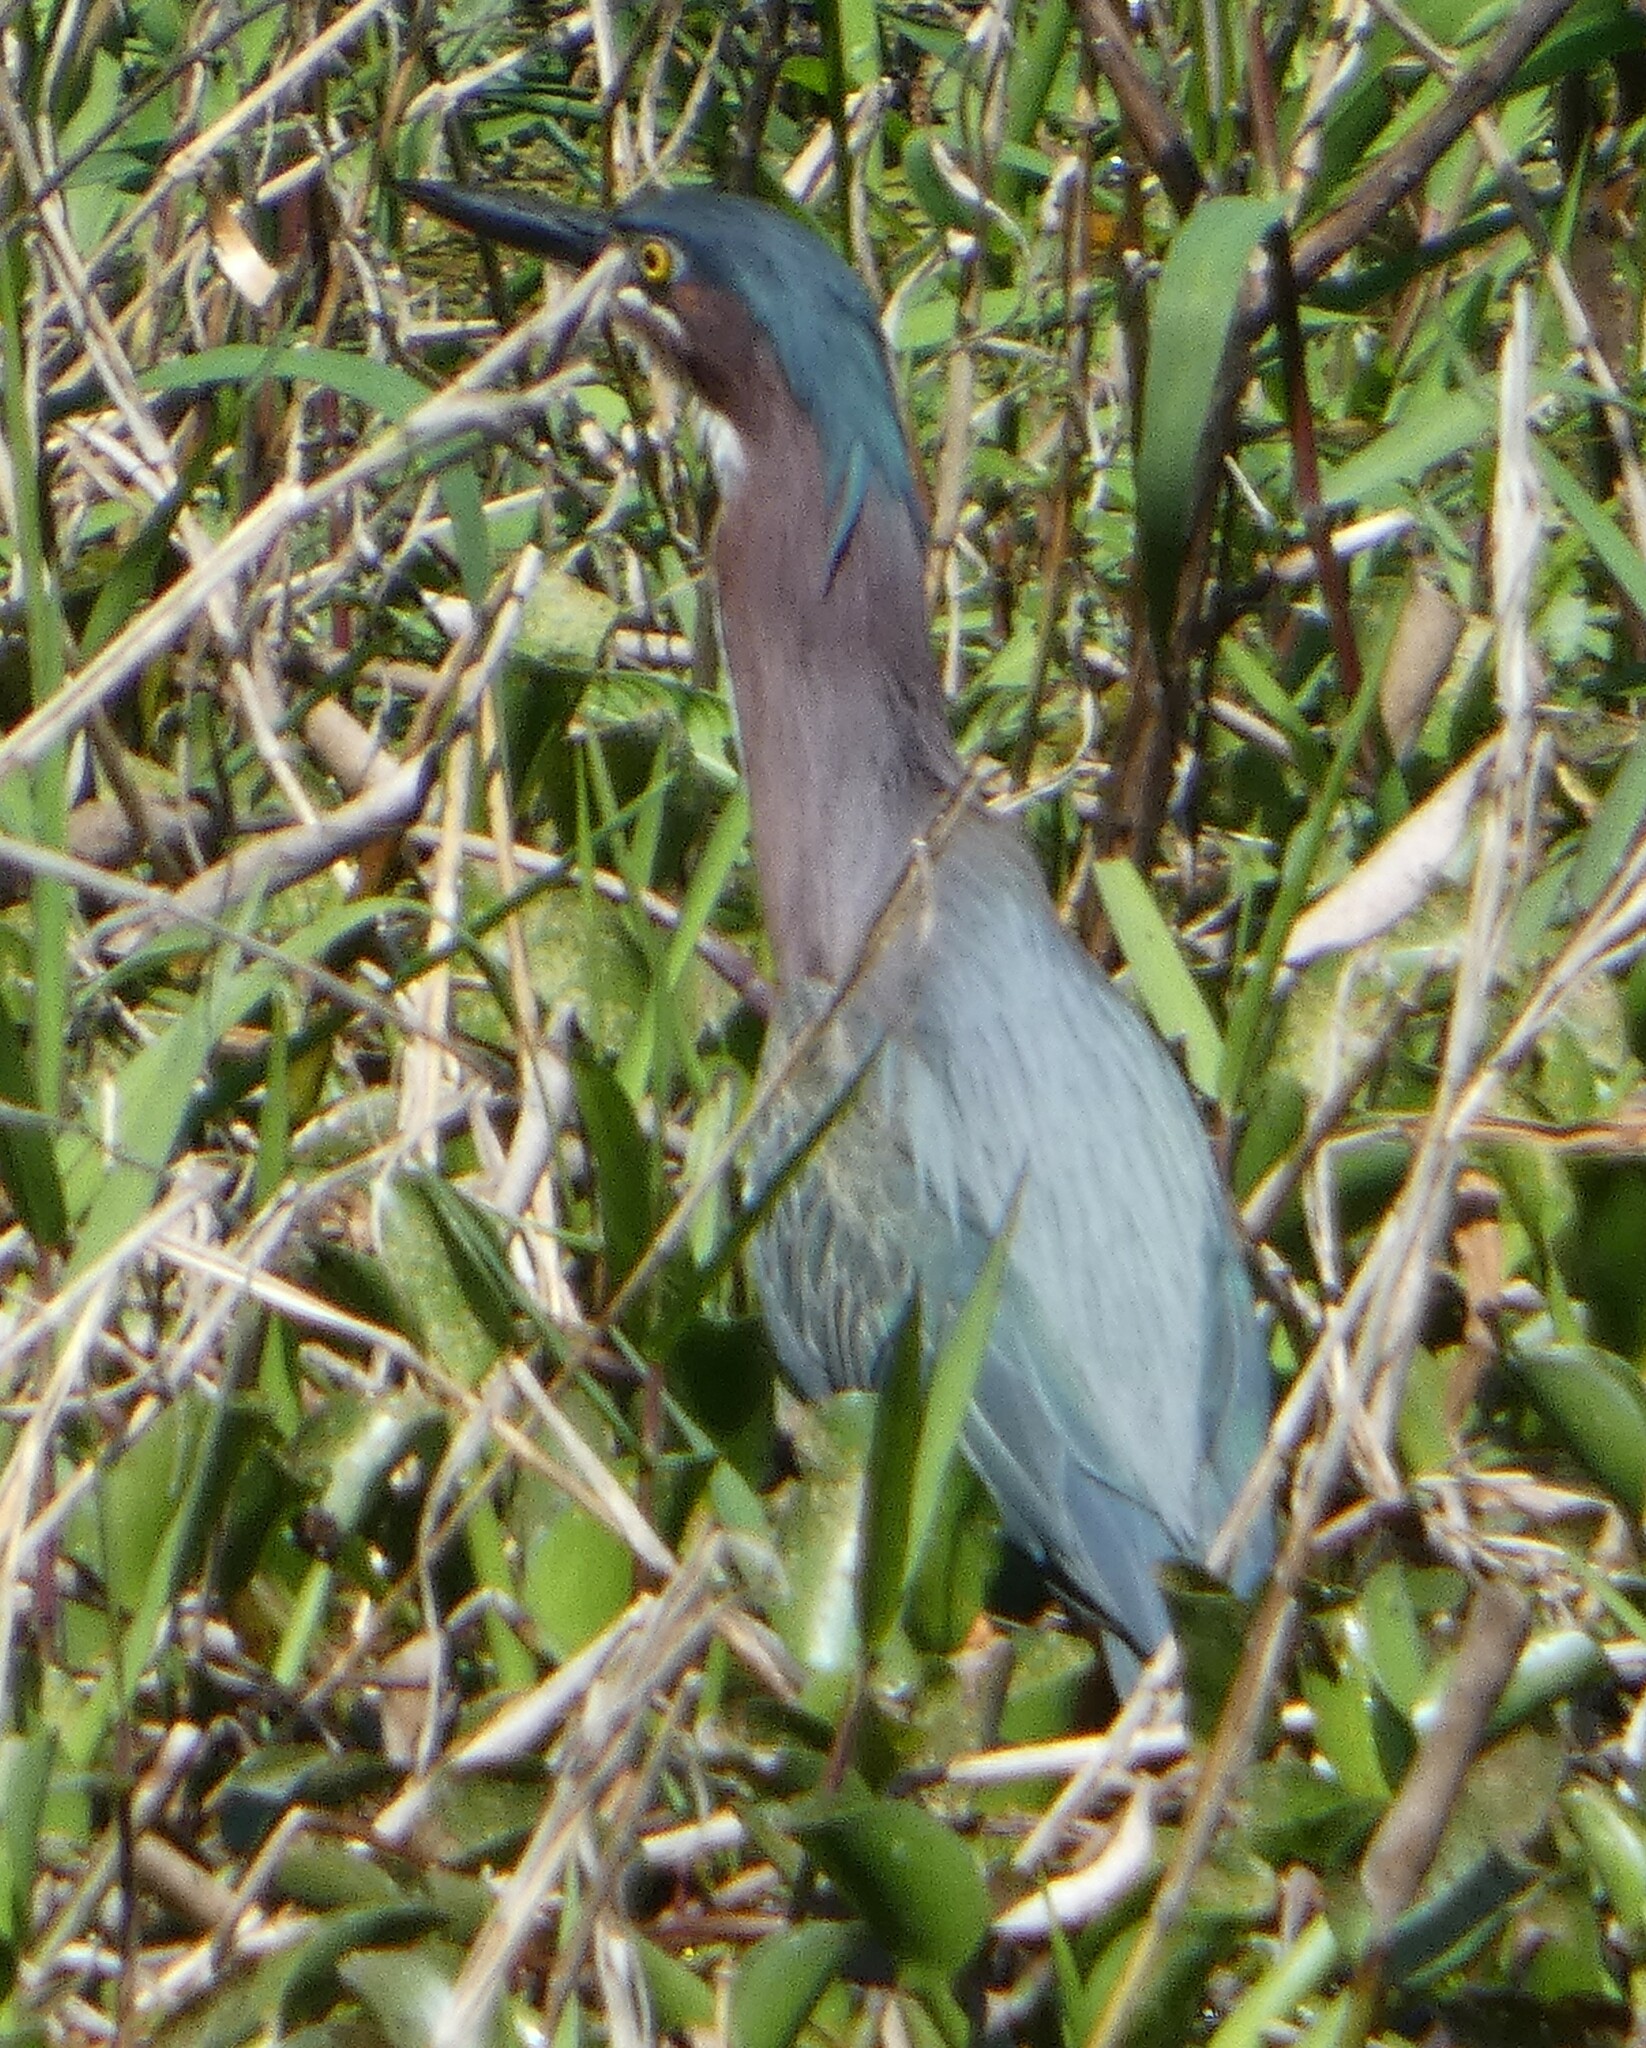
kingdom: Animalia
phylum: Chordata
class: Aves
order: Pelecaniformes
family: Ardeidae
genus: Butorides
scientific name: Butorides virescens
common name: Green heron
